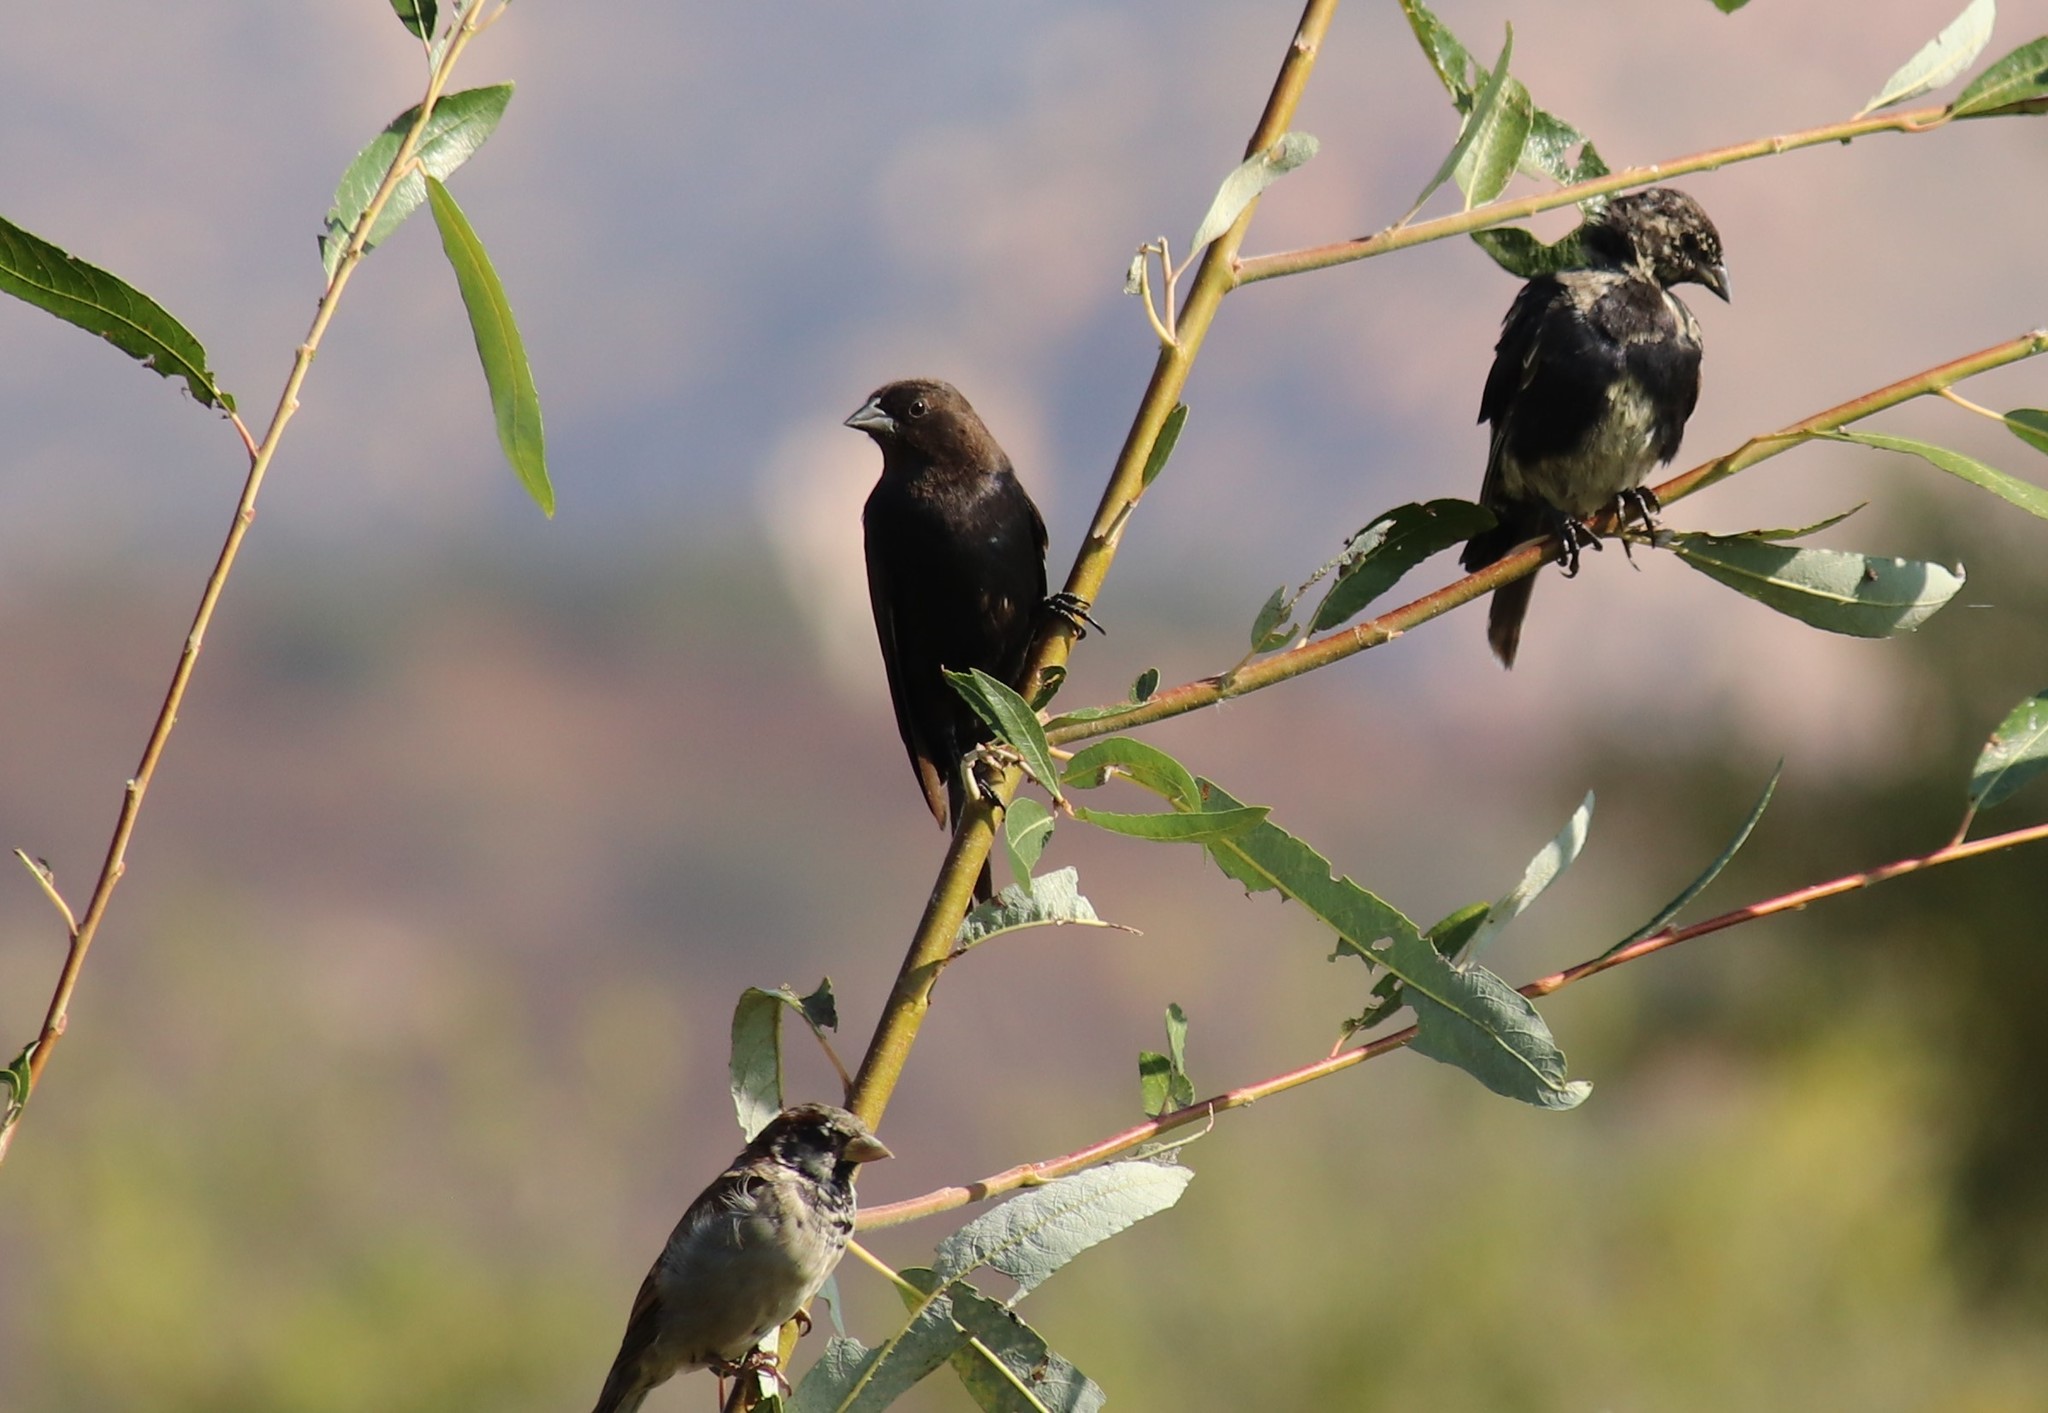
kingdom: Animalia
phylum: Chordata
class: Aves
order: Passeriformes
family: Icteridae
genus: Molothrus
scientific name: Molothrus ater
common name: Brown-headed cowbird
